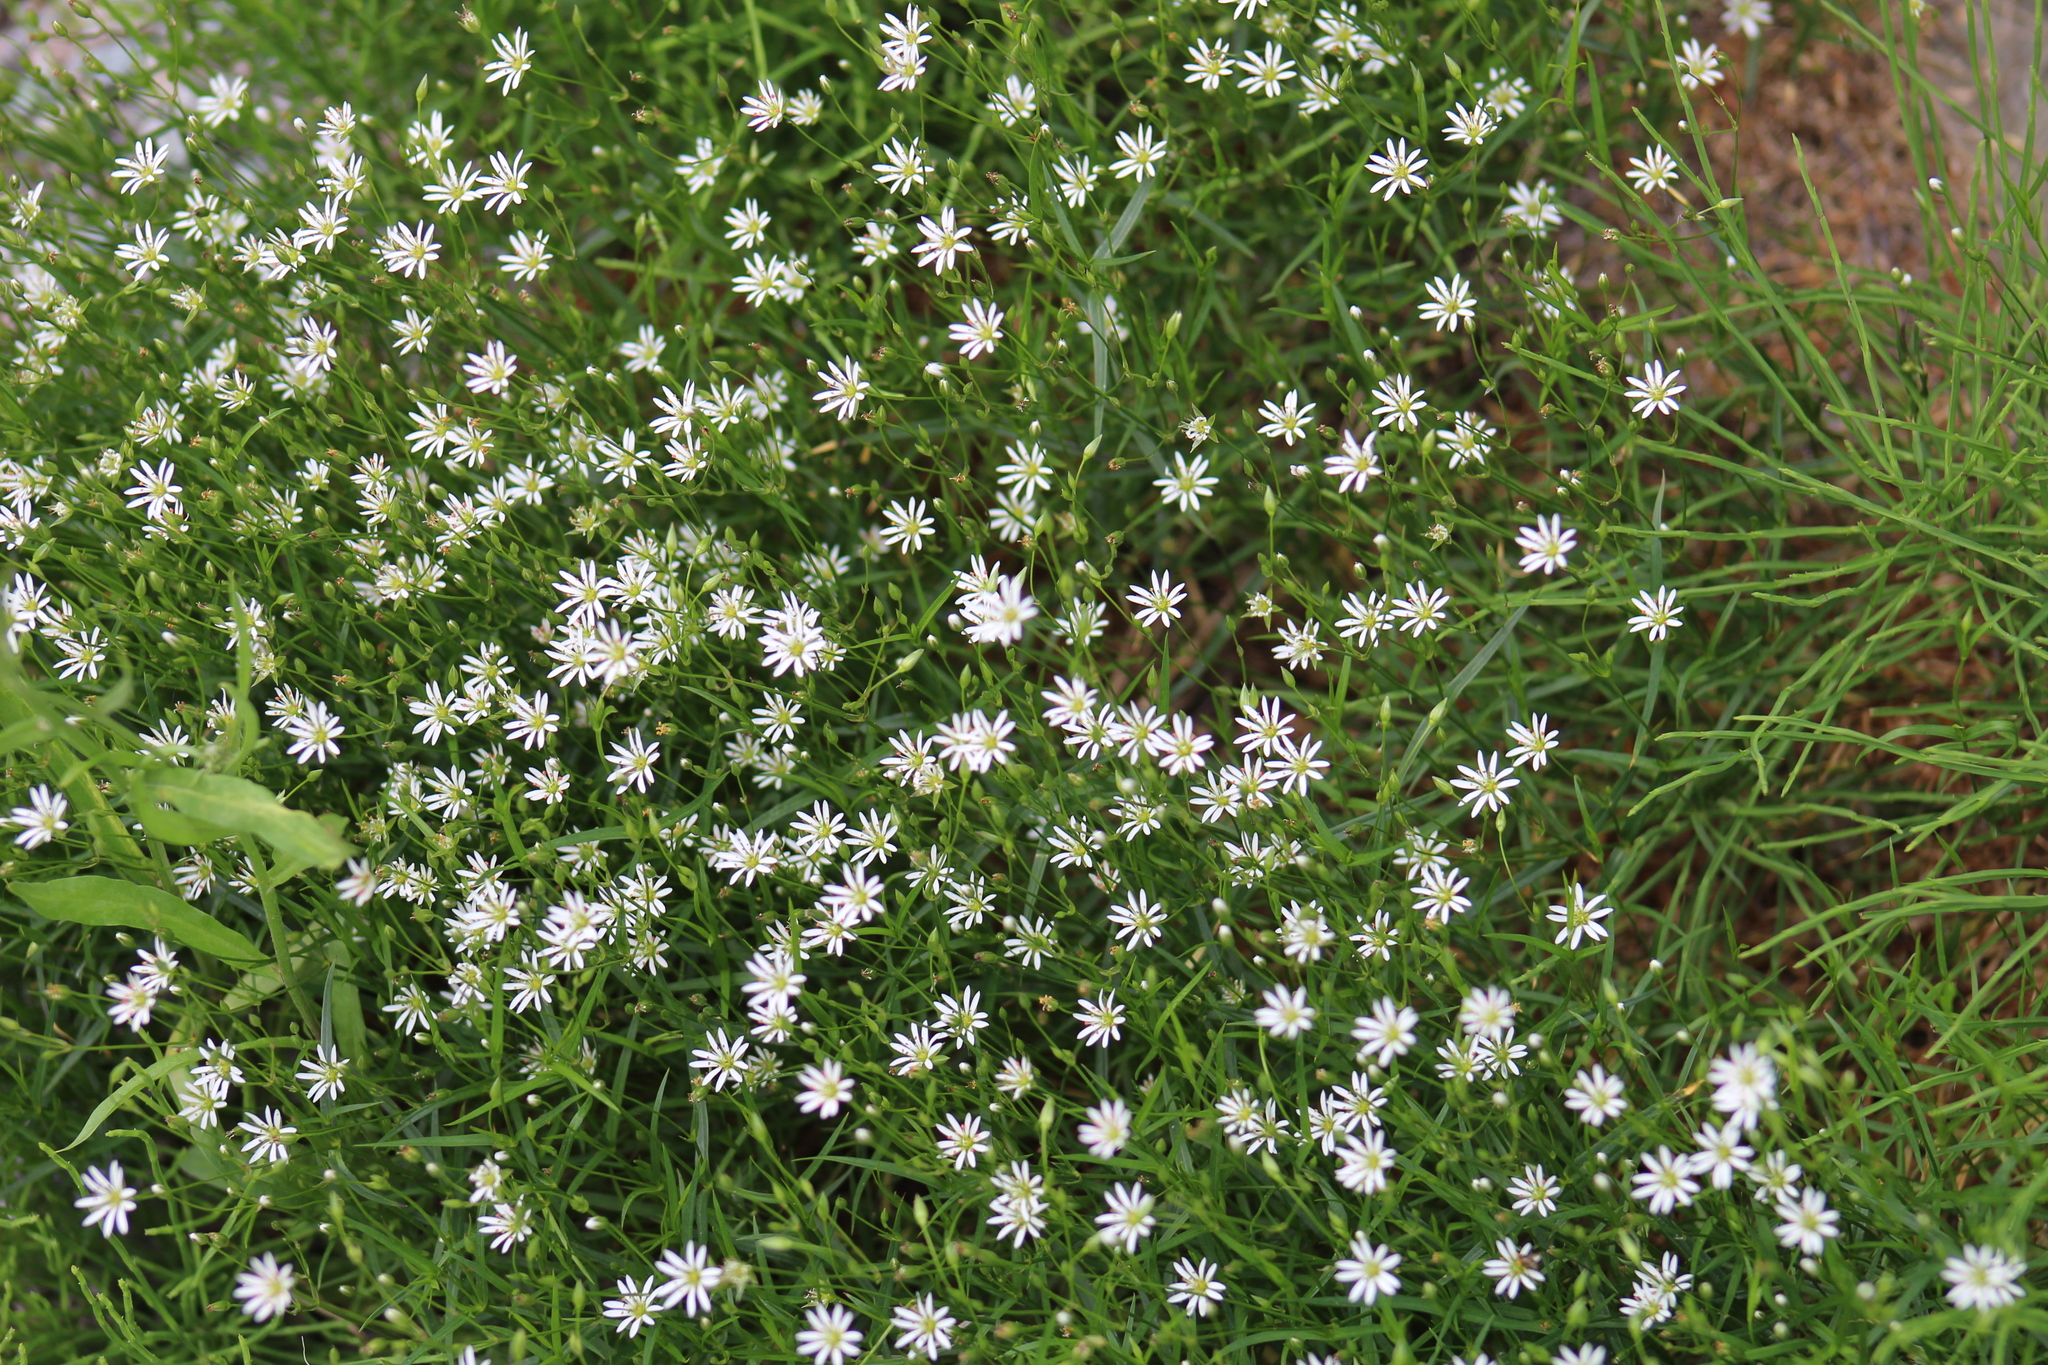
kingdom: Plantae
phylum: Tracheophyta
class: Magnoliopsida
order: Caryophyllales
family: Caryophyllaceae
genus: Stellaria
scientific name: Stellaria longipes
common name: Goldie's starwort
